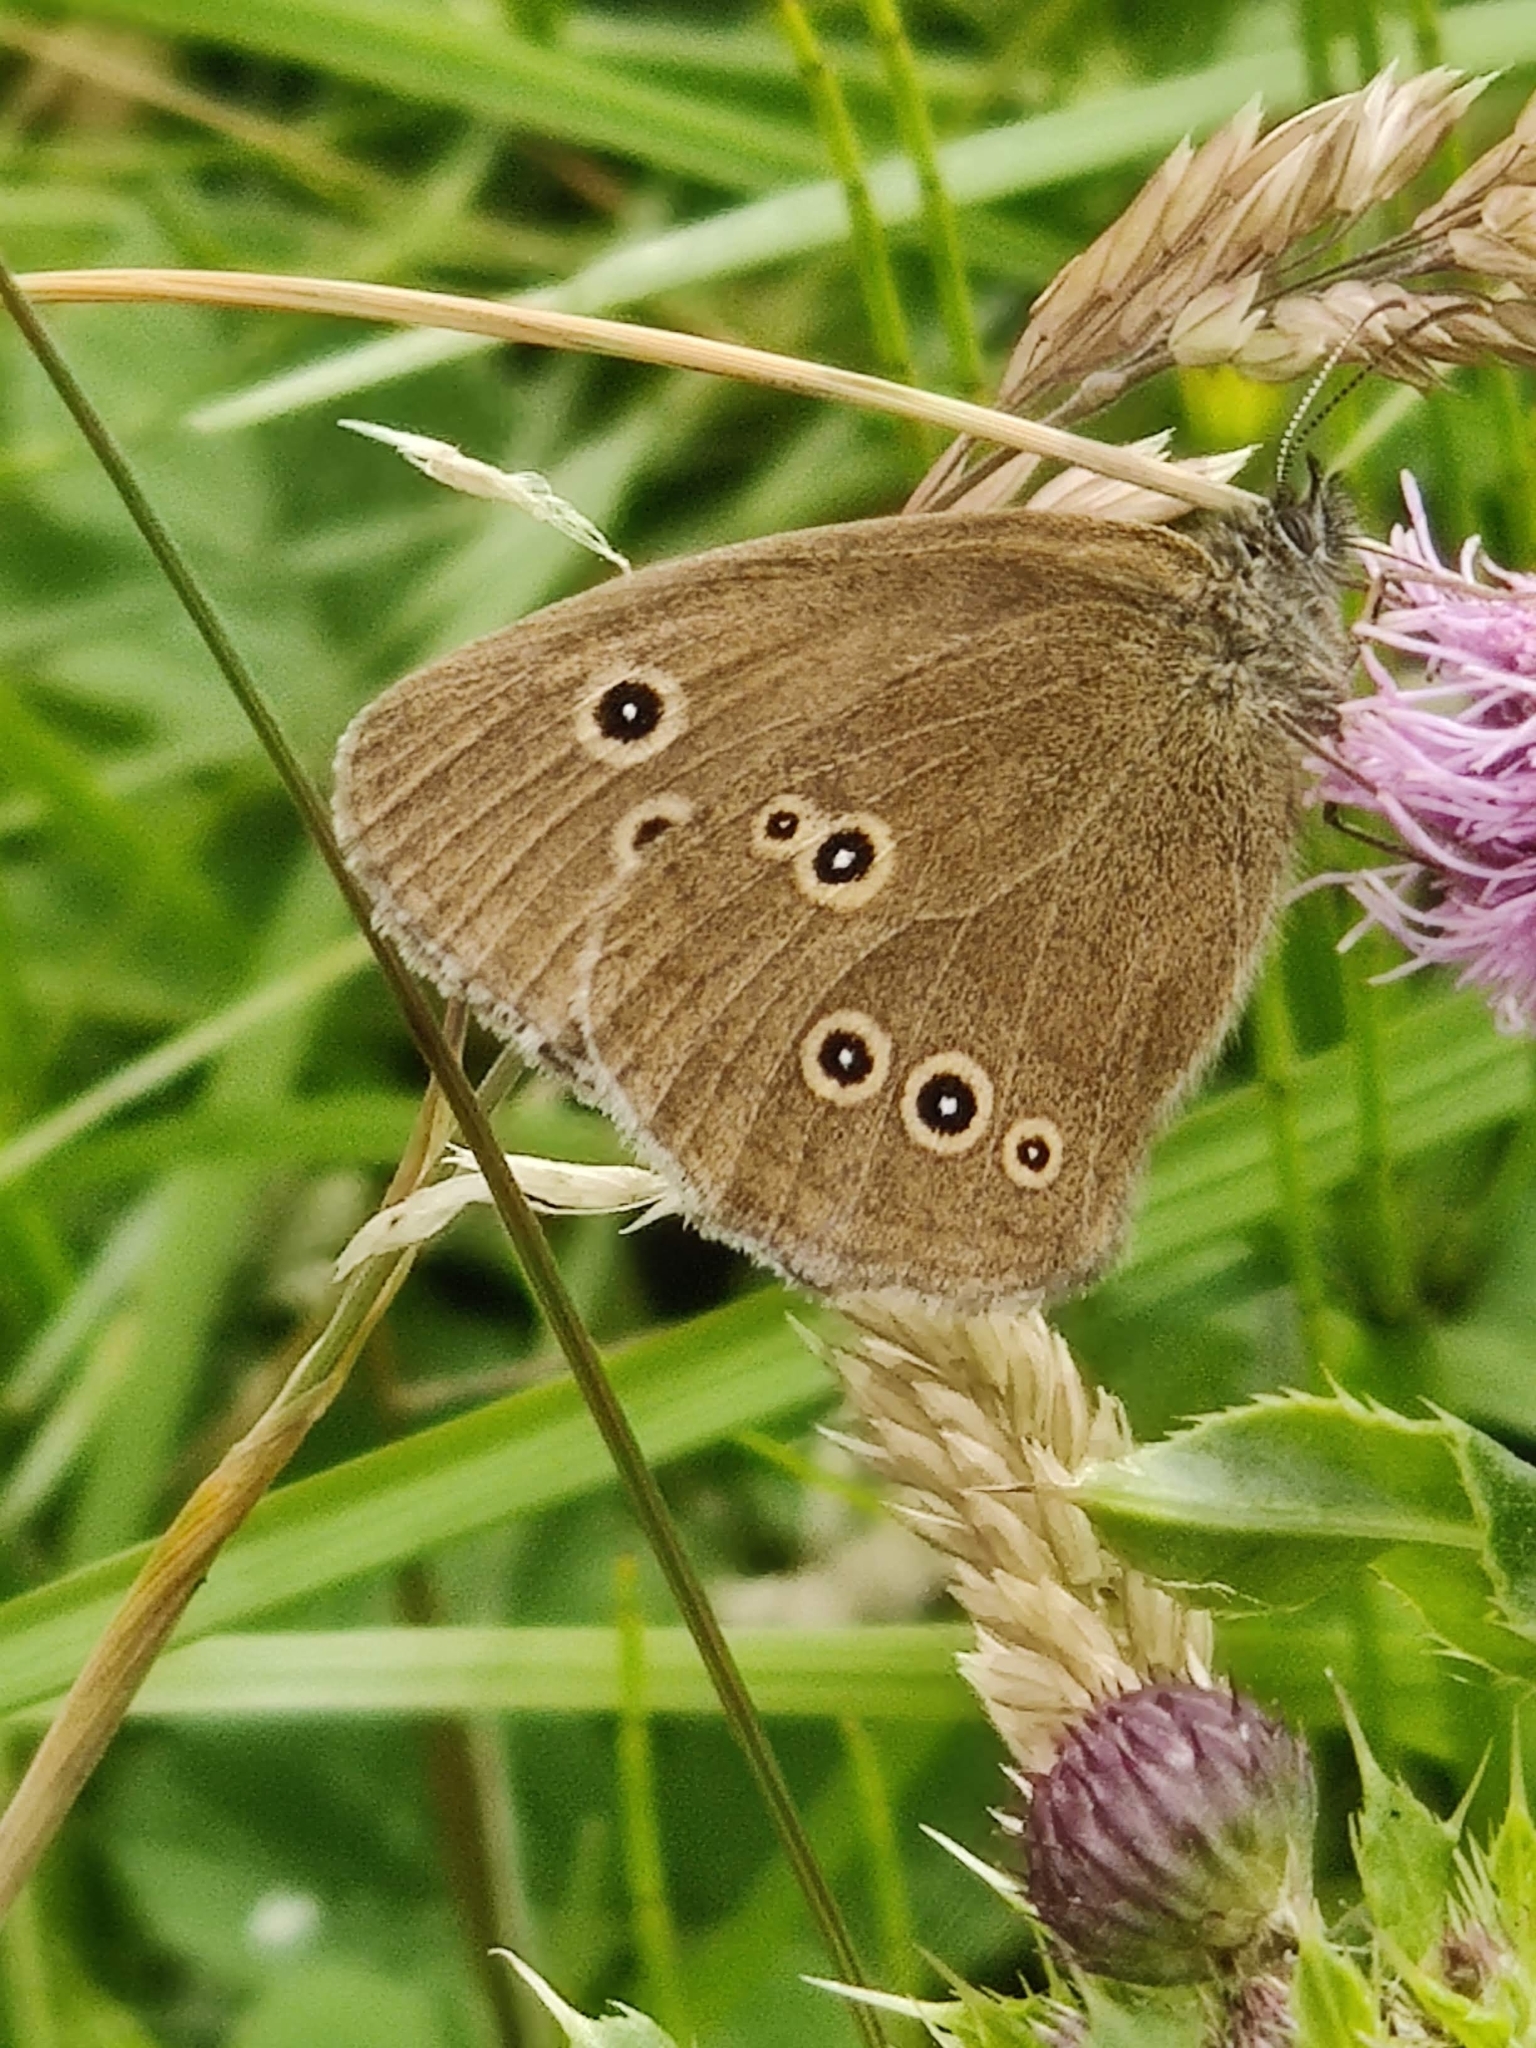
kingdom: Animalia
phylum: Arthropoda
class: Insecta
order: Lepidoptera
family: Nymphalidae
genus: Aphantopus
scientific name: Aphantopus hyperantus
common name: Ringlet
